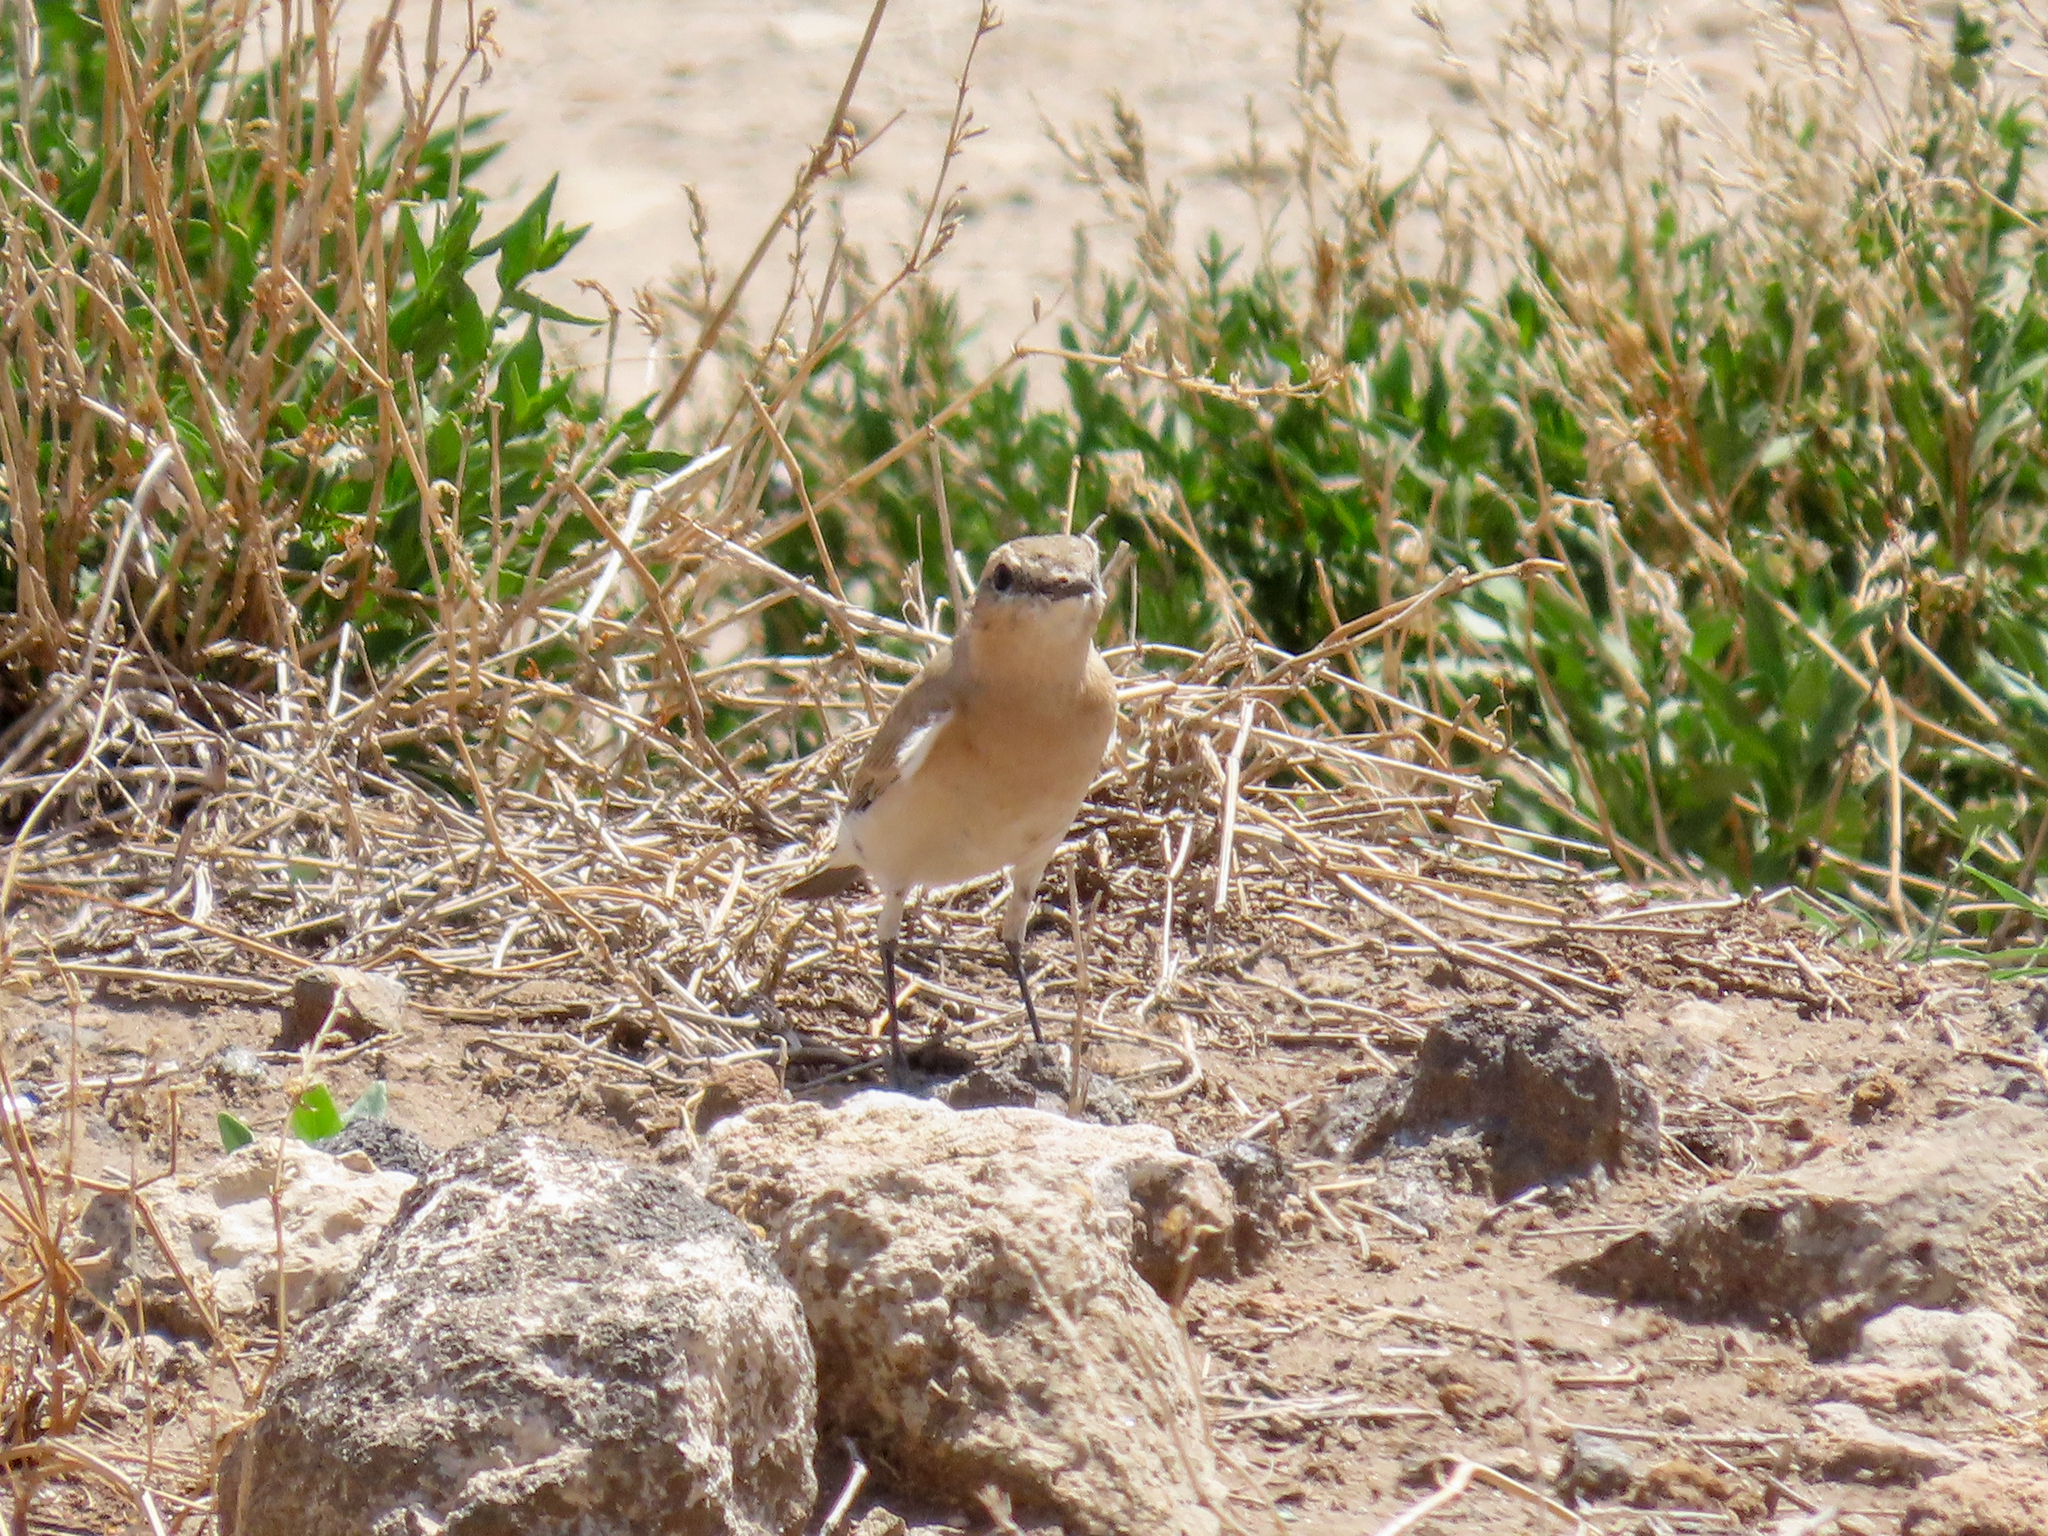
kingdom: Animalia
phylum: Chordata
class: Aves
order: Passeriformes
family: Muscicapidae
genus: Oenanthe
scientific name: Oenanthe isabellina
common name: Isabelline wheatear
